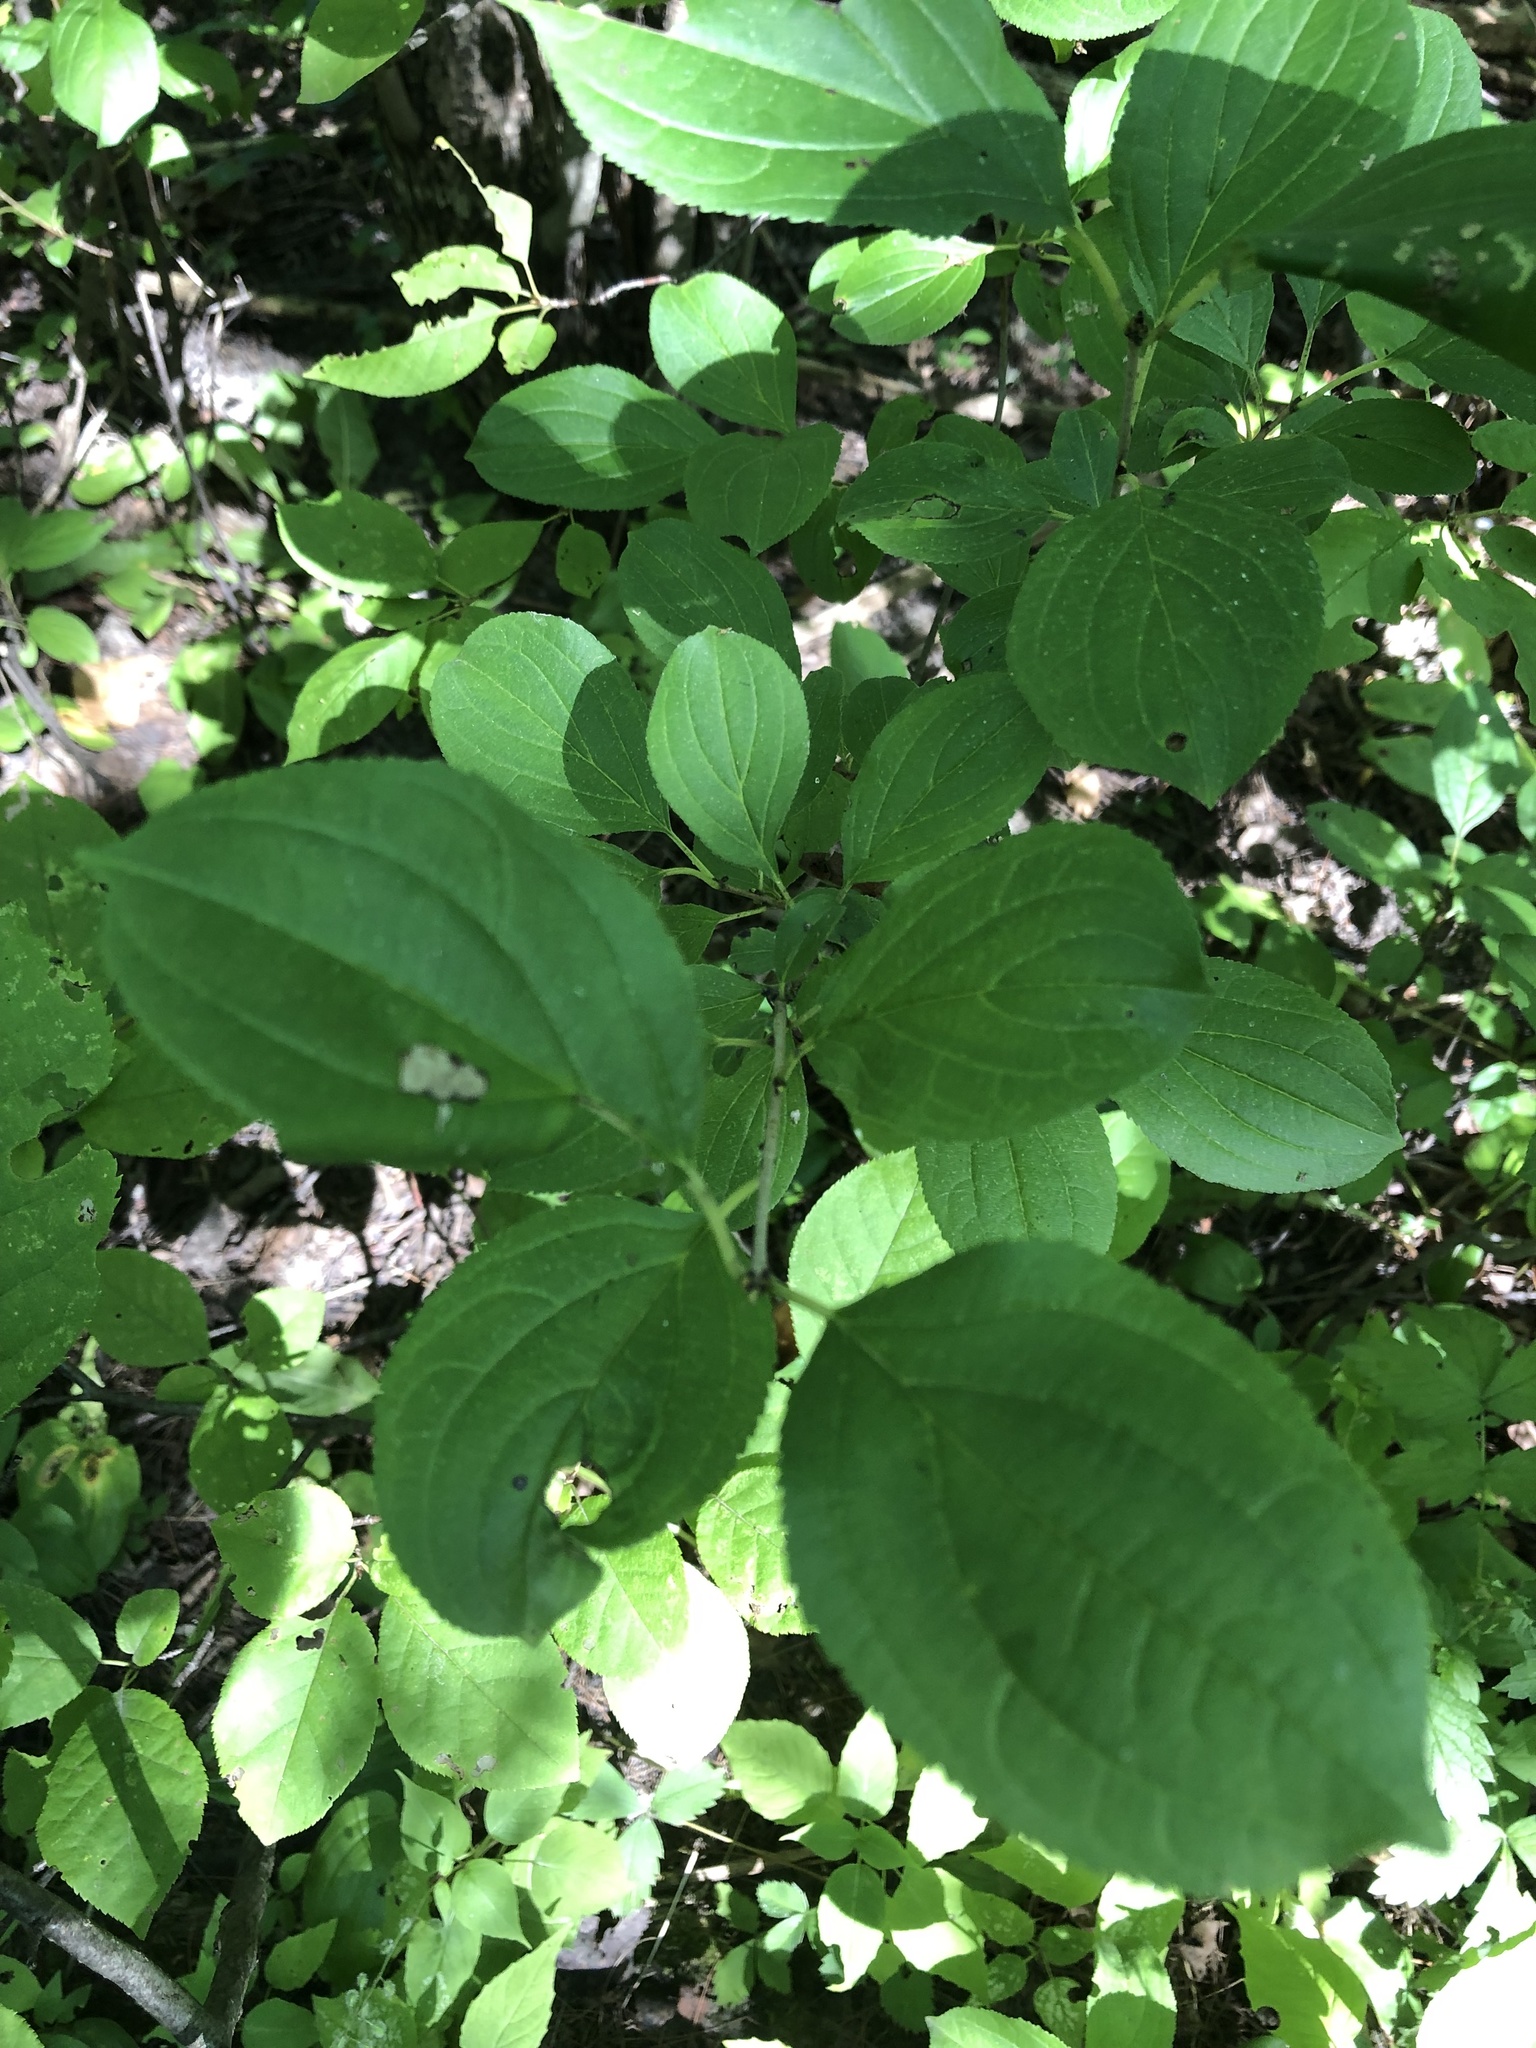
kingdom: Plantae
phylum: Tracheophyta
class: Magnoliopsida
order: Rosales
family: Rhamnaceae
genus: Rhamnus
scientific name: Rhamnus cathartica
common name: Common buckthorn
